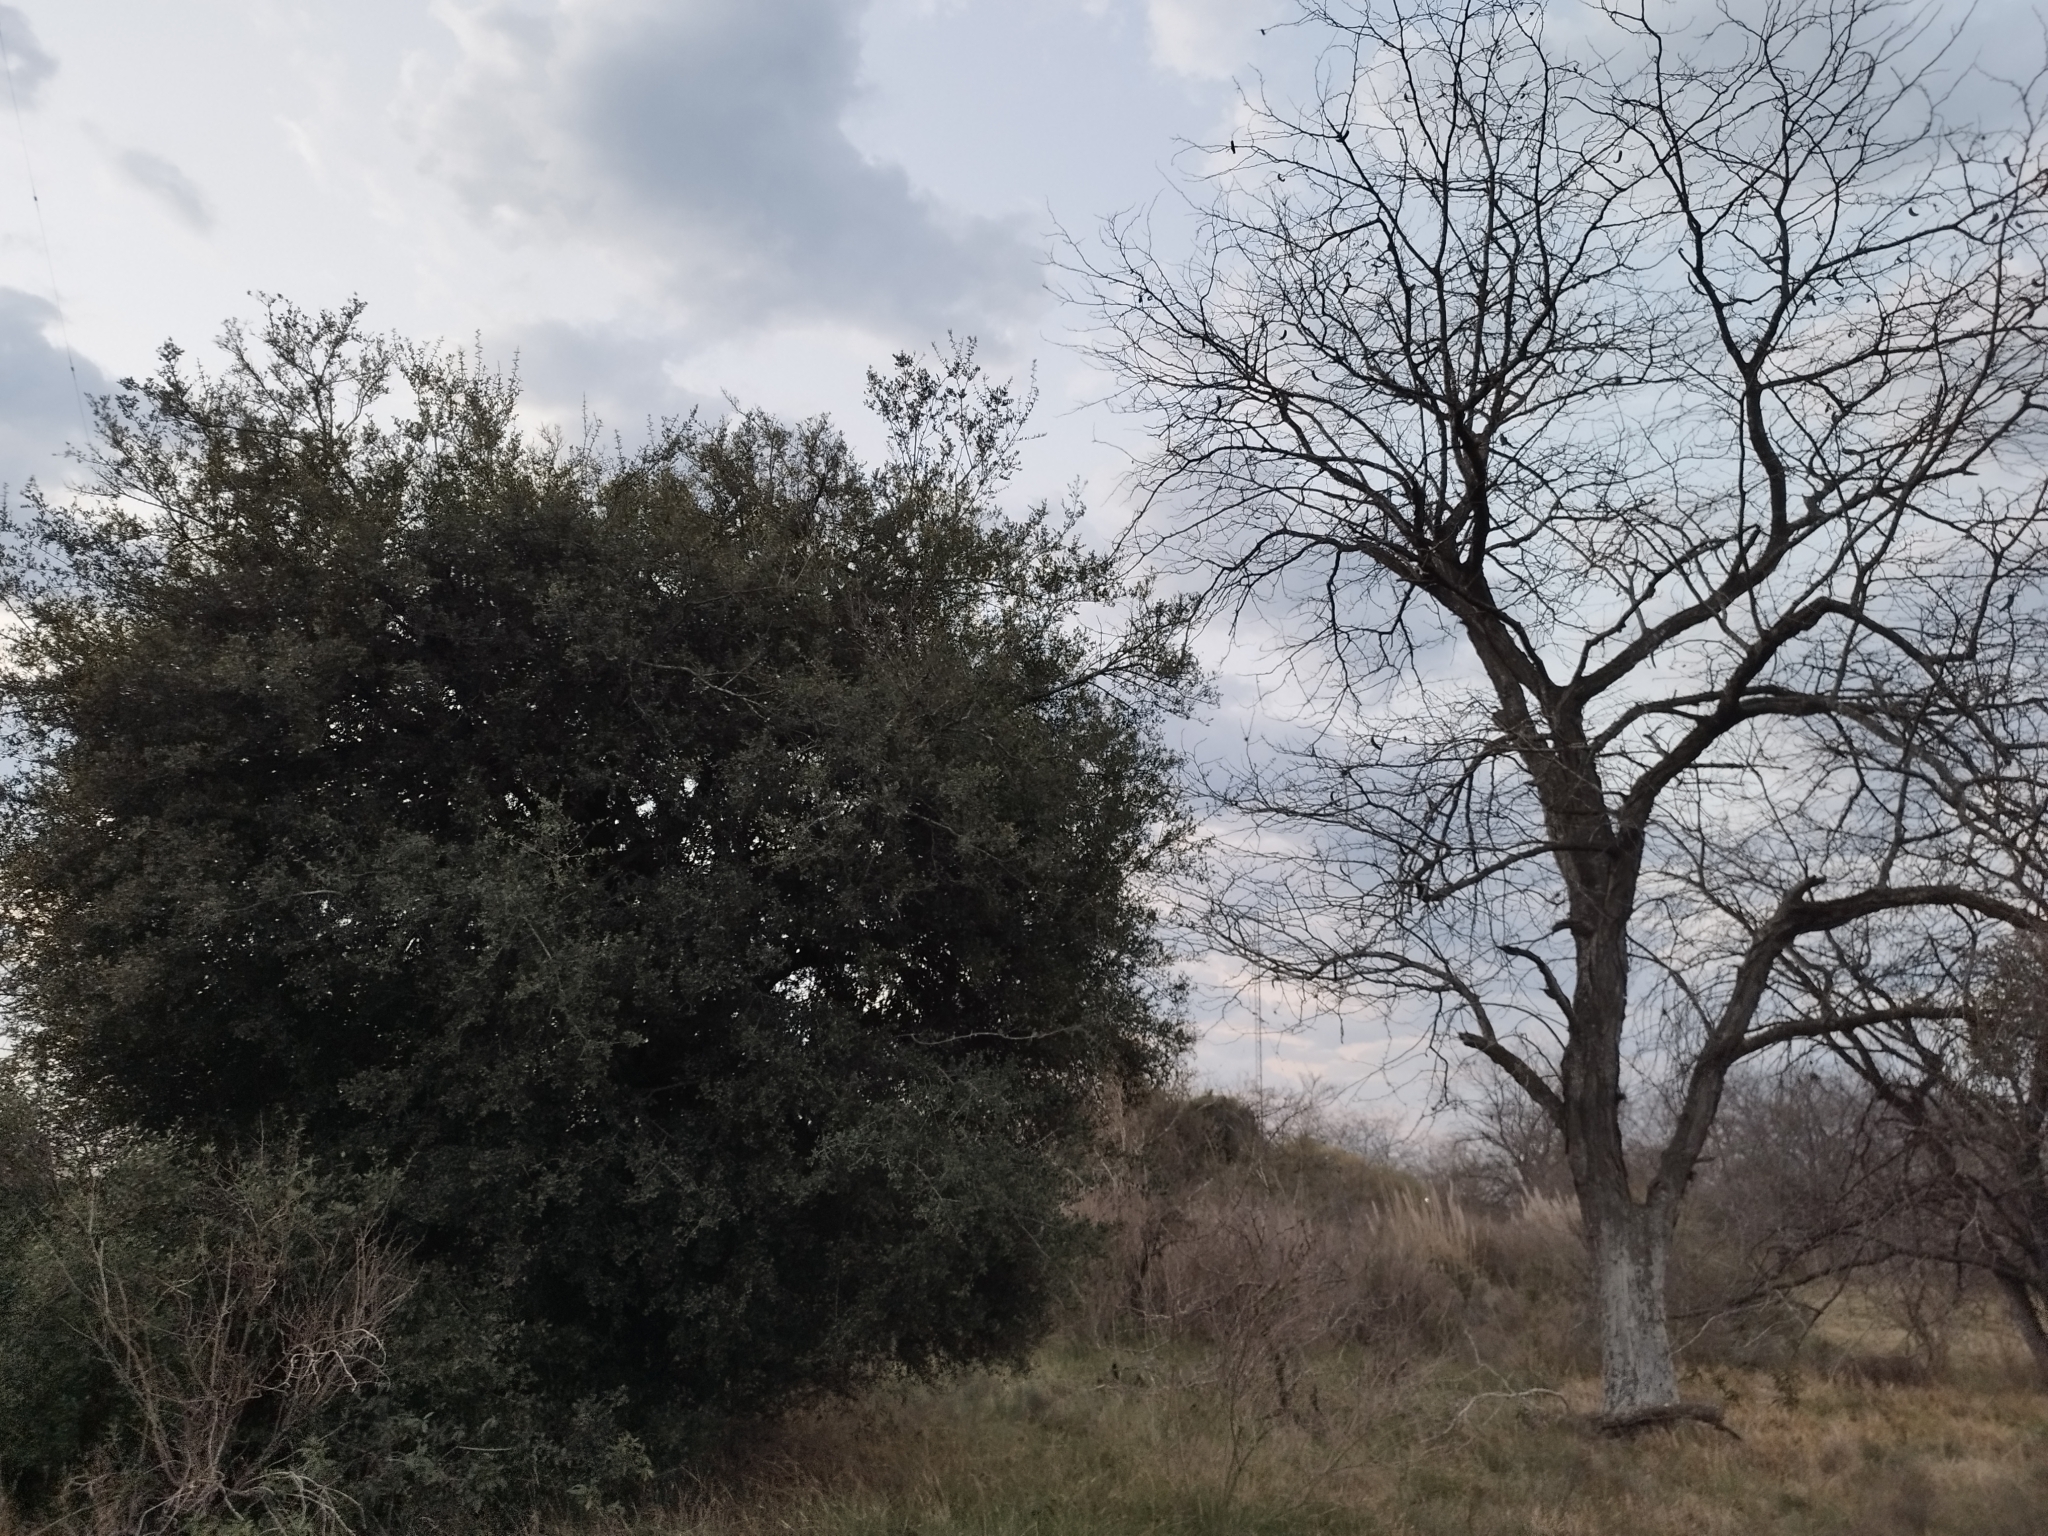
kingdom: Plantae
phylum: Tracheophyta
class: Magnoliopsida
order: Rosales
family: Rhamnaceae
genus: Scutia
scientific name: Scutia buxifolia
